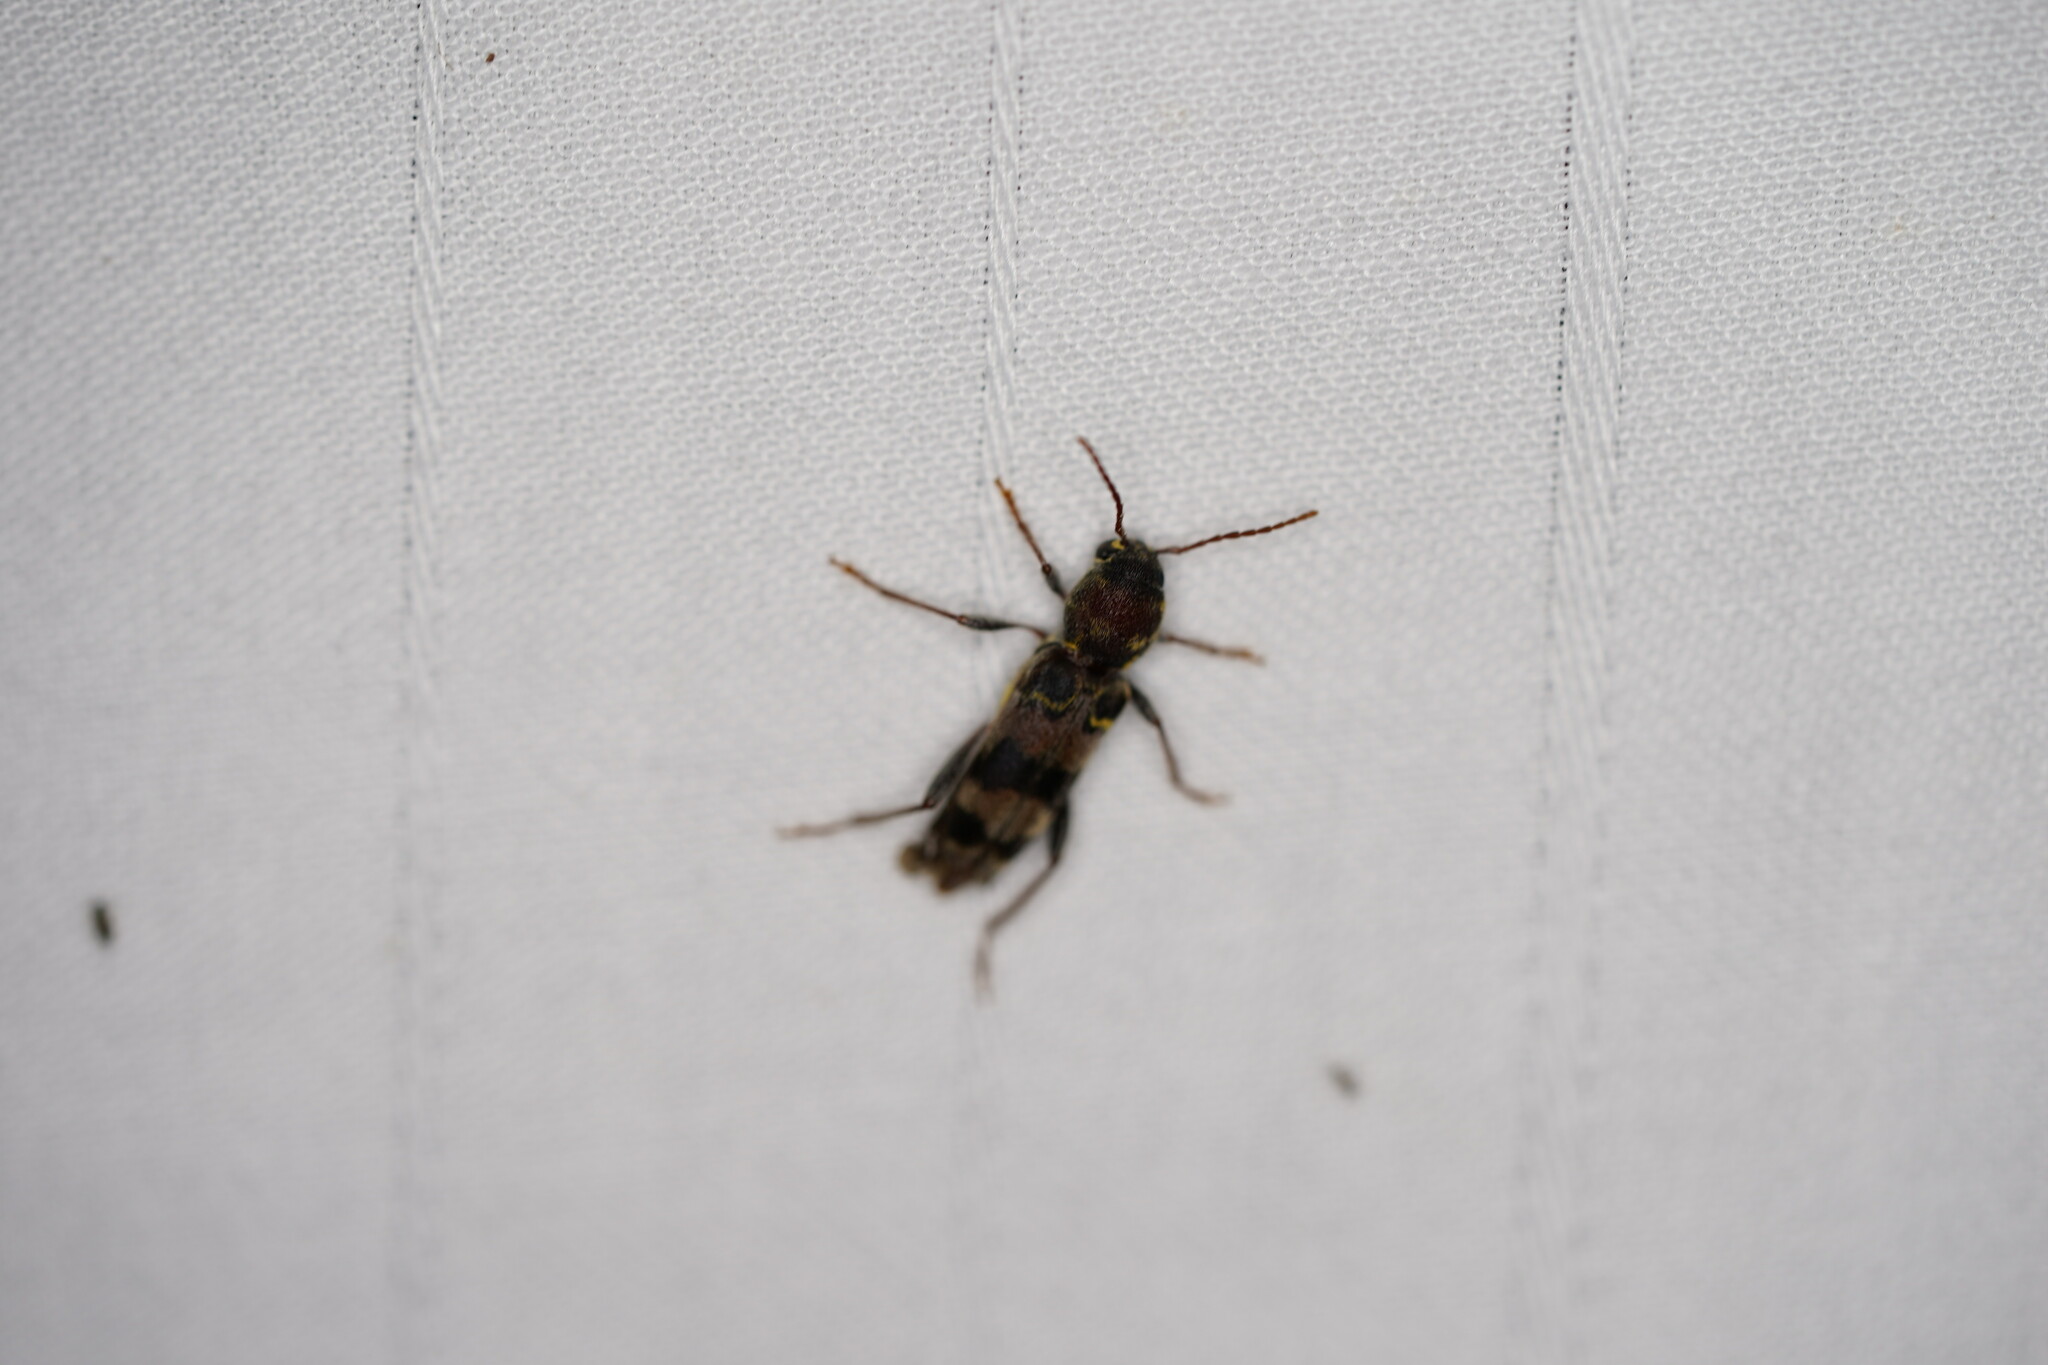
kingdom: Animalia
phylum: Arthropoda
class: Insecta
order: Coleoptera
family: Cerambycidae
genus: Xylotrechus
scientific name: Xylotrechus colonus
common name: Long-horned beetle
